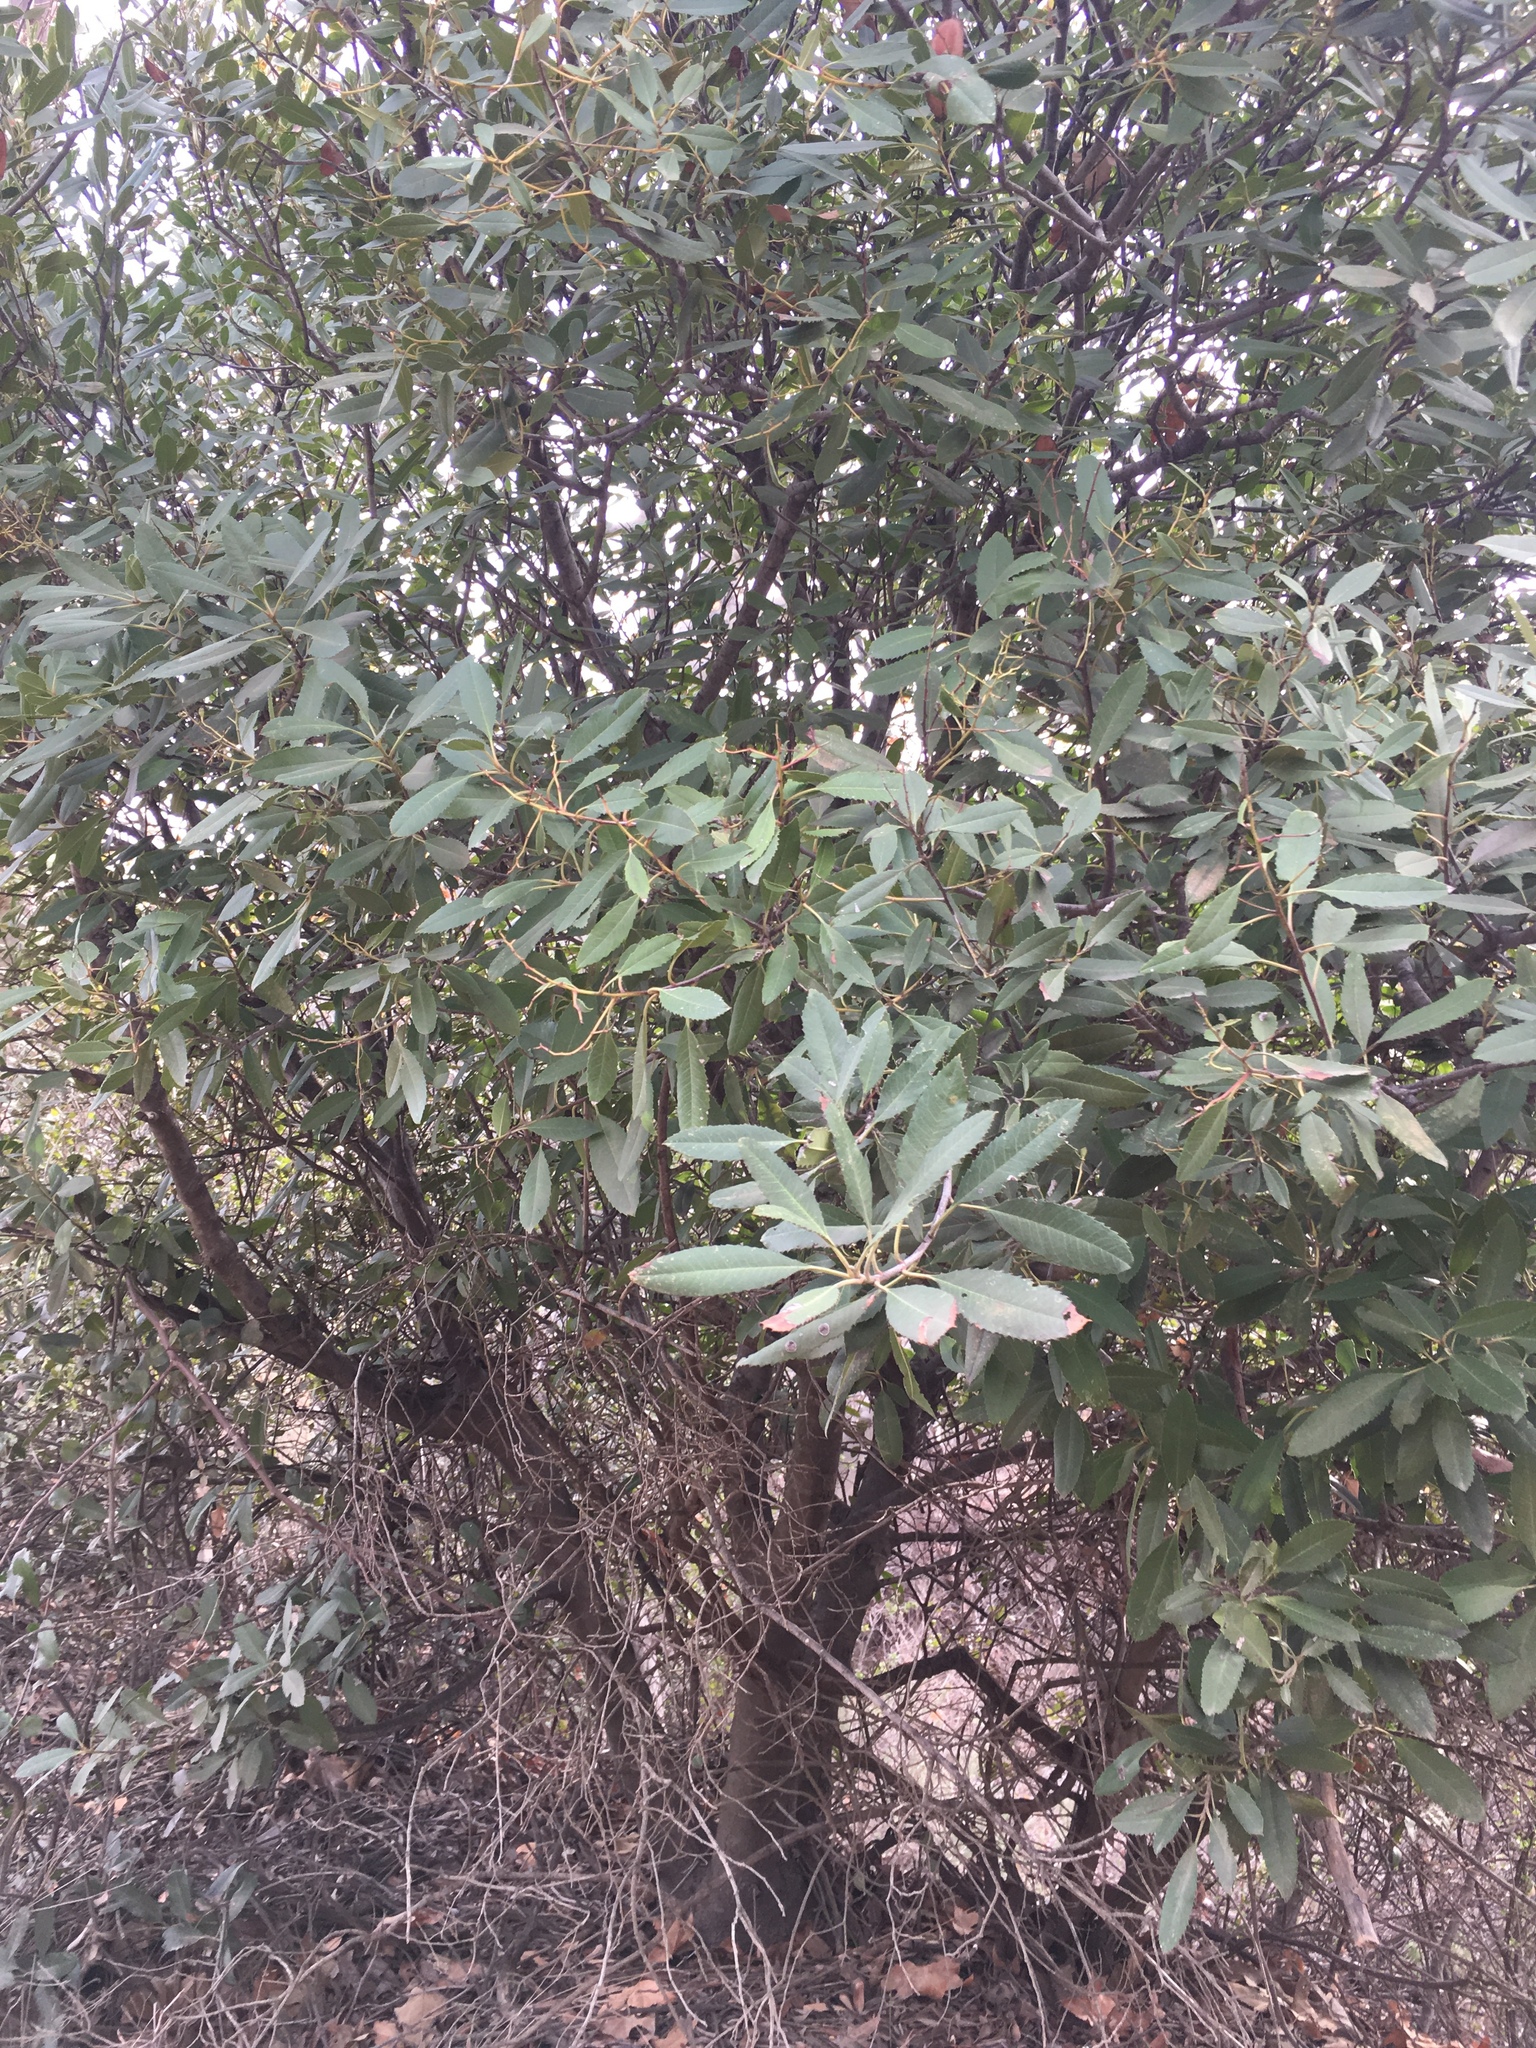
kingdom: Plantae
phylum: Tracheophyta
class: Magnoliopsida
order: Rosales
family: Rosaceae
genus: Heteromeles
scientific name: Heteromeles arbutifolia
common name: California-holly
